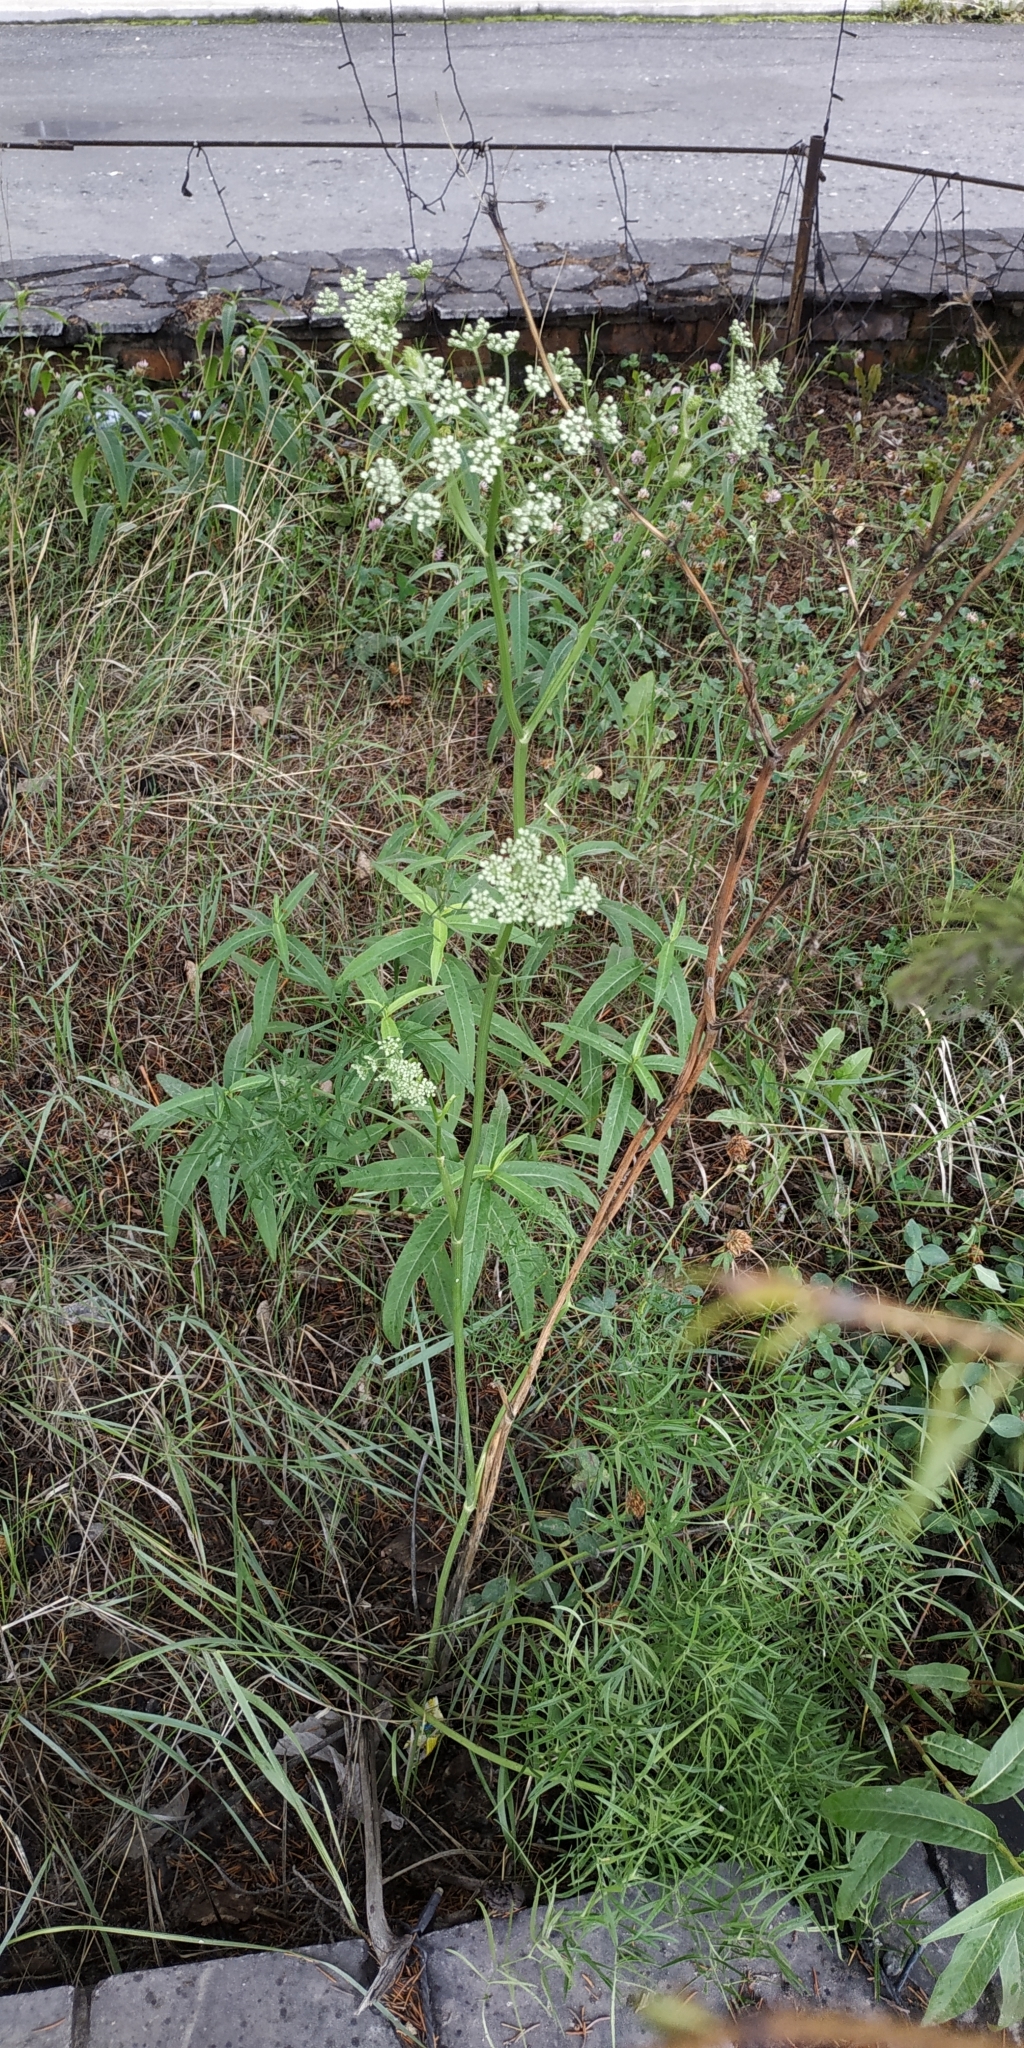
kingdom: Plantae
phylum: Tracheophyta
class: Magnoliopsida
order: Apiales
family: Apiaceae
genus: Cenolophium
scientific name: Cenolophium fischeri
